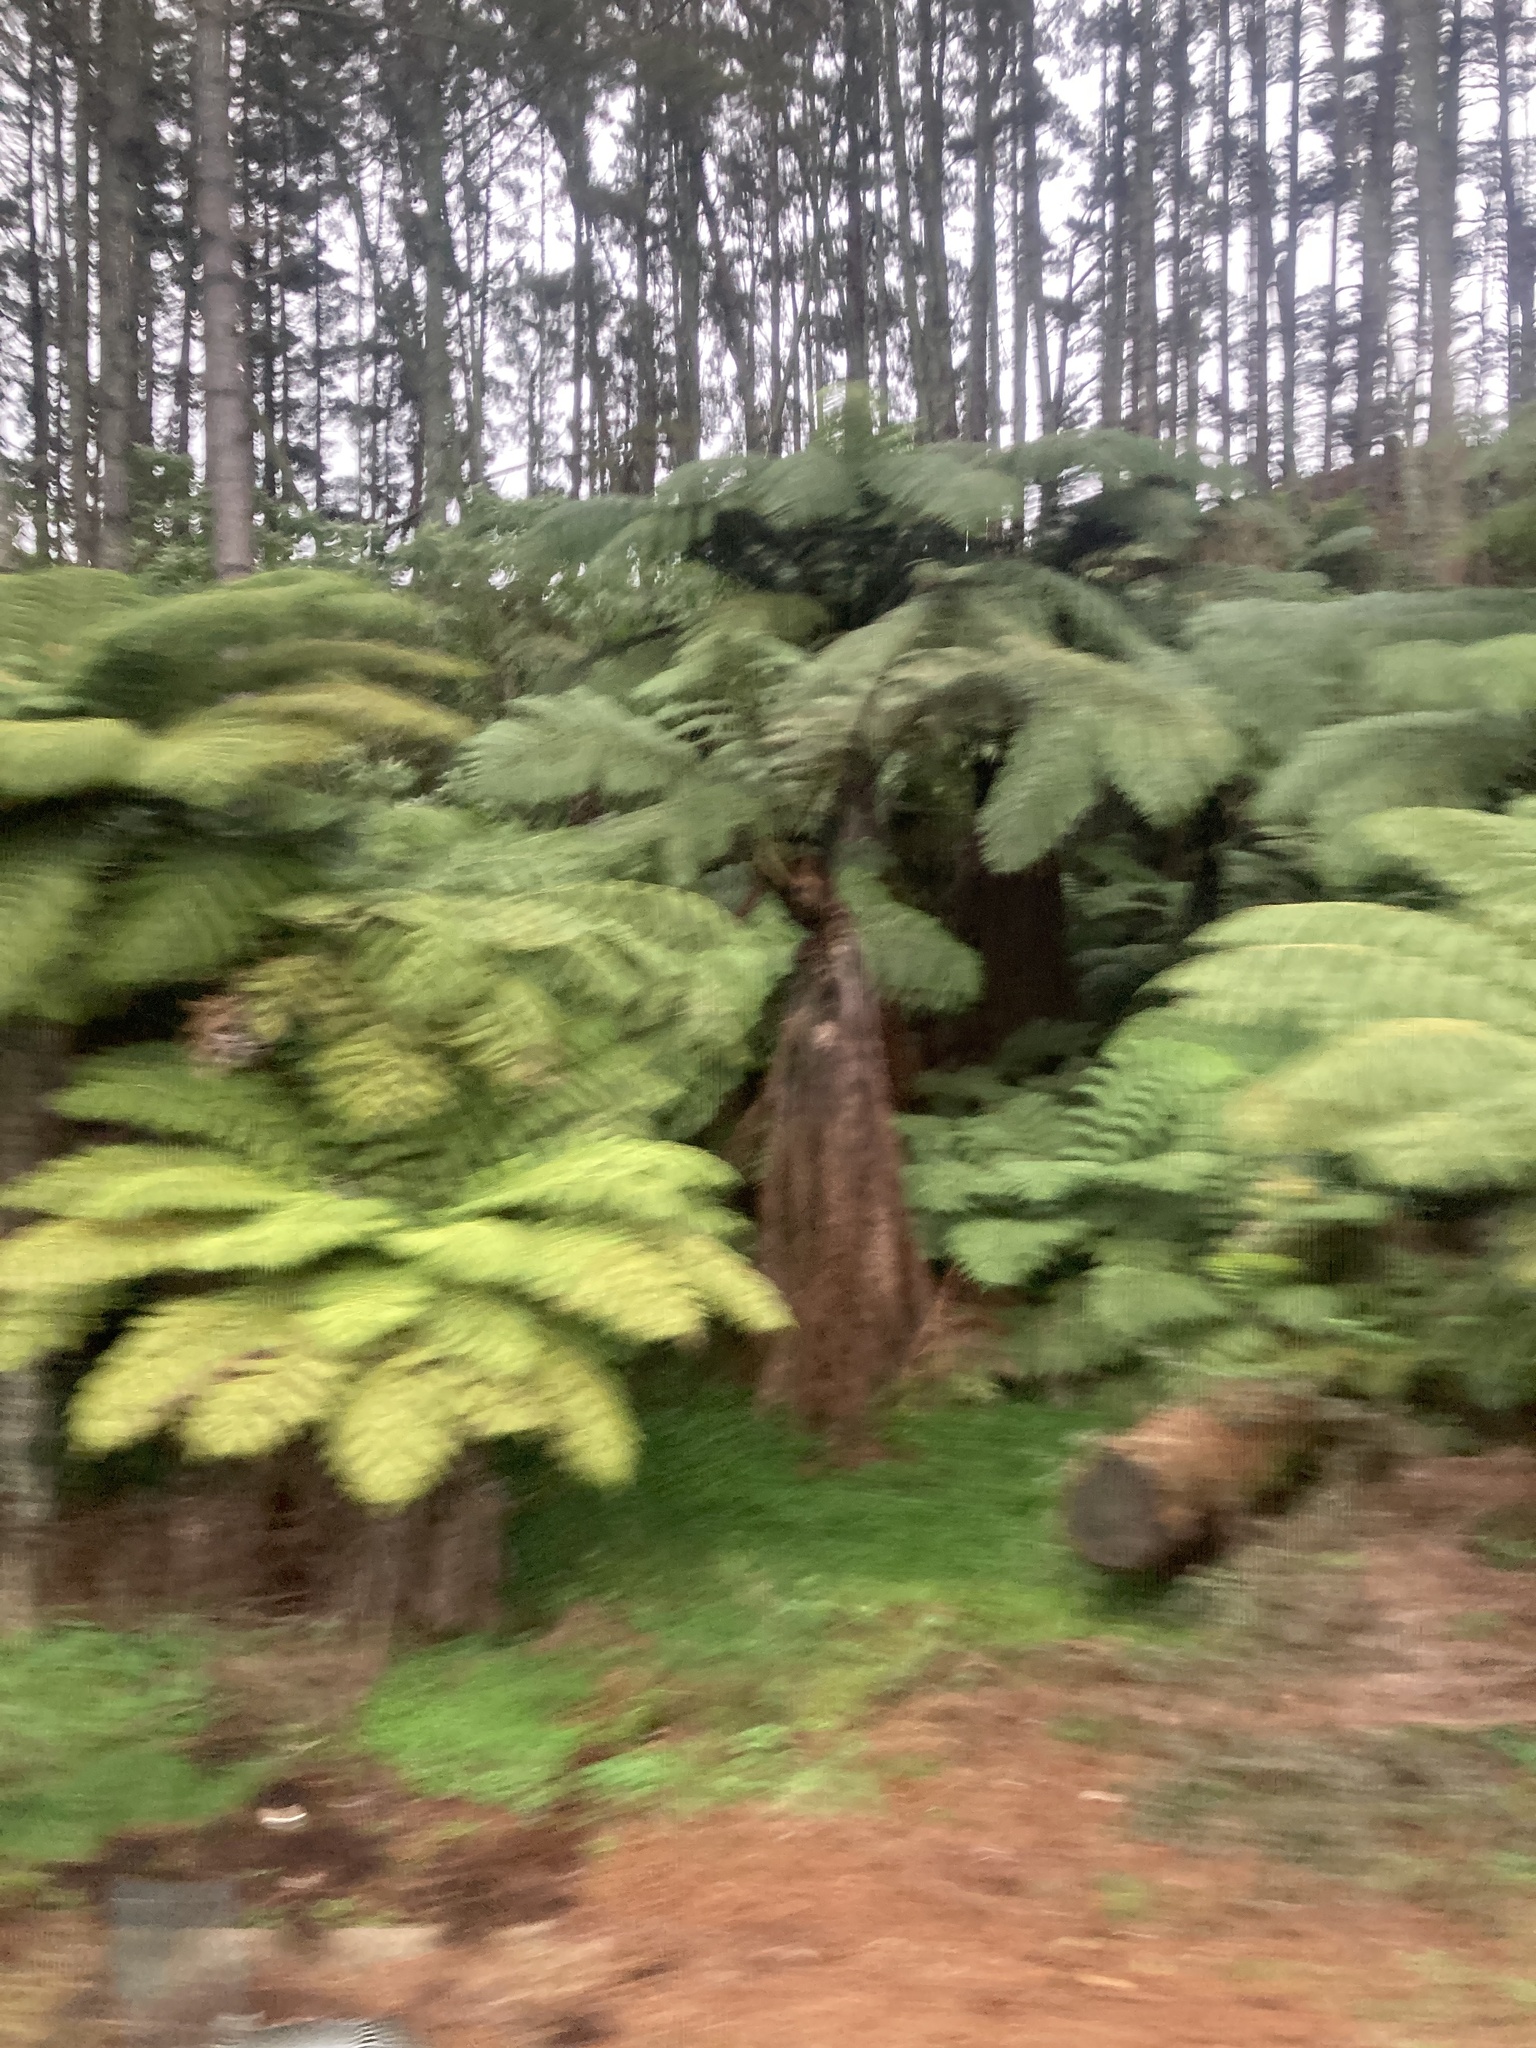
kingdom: Plantae
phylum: Tracheophyta
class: Polypodiopsida
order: Cyatheales
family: Cyatheaceae
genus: Sphaeropteris
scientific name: Sphaeropteris medullaris
